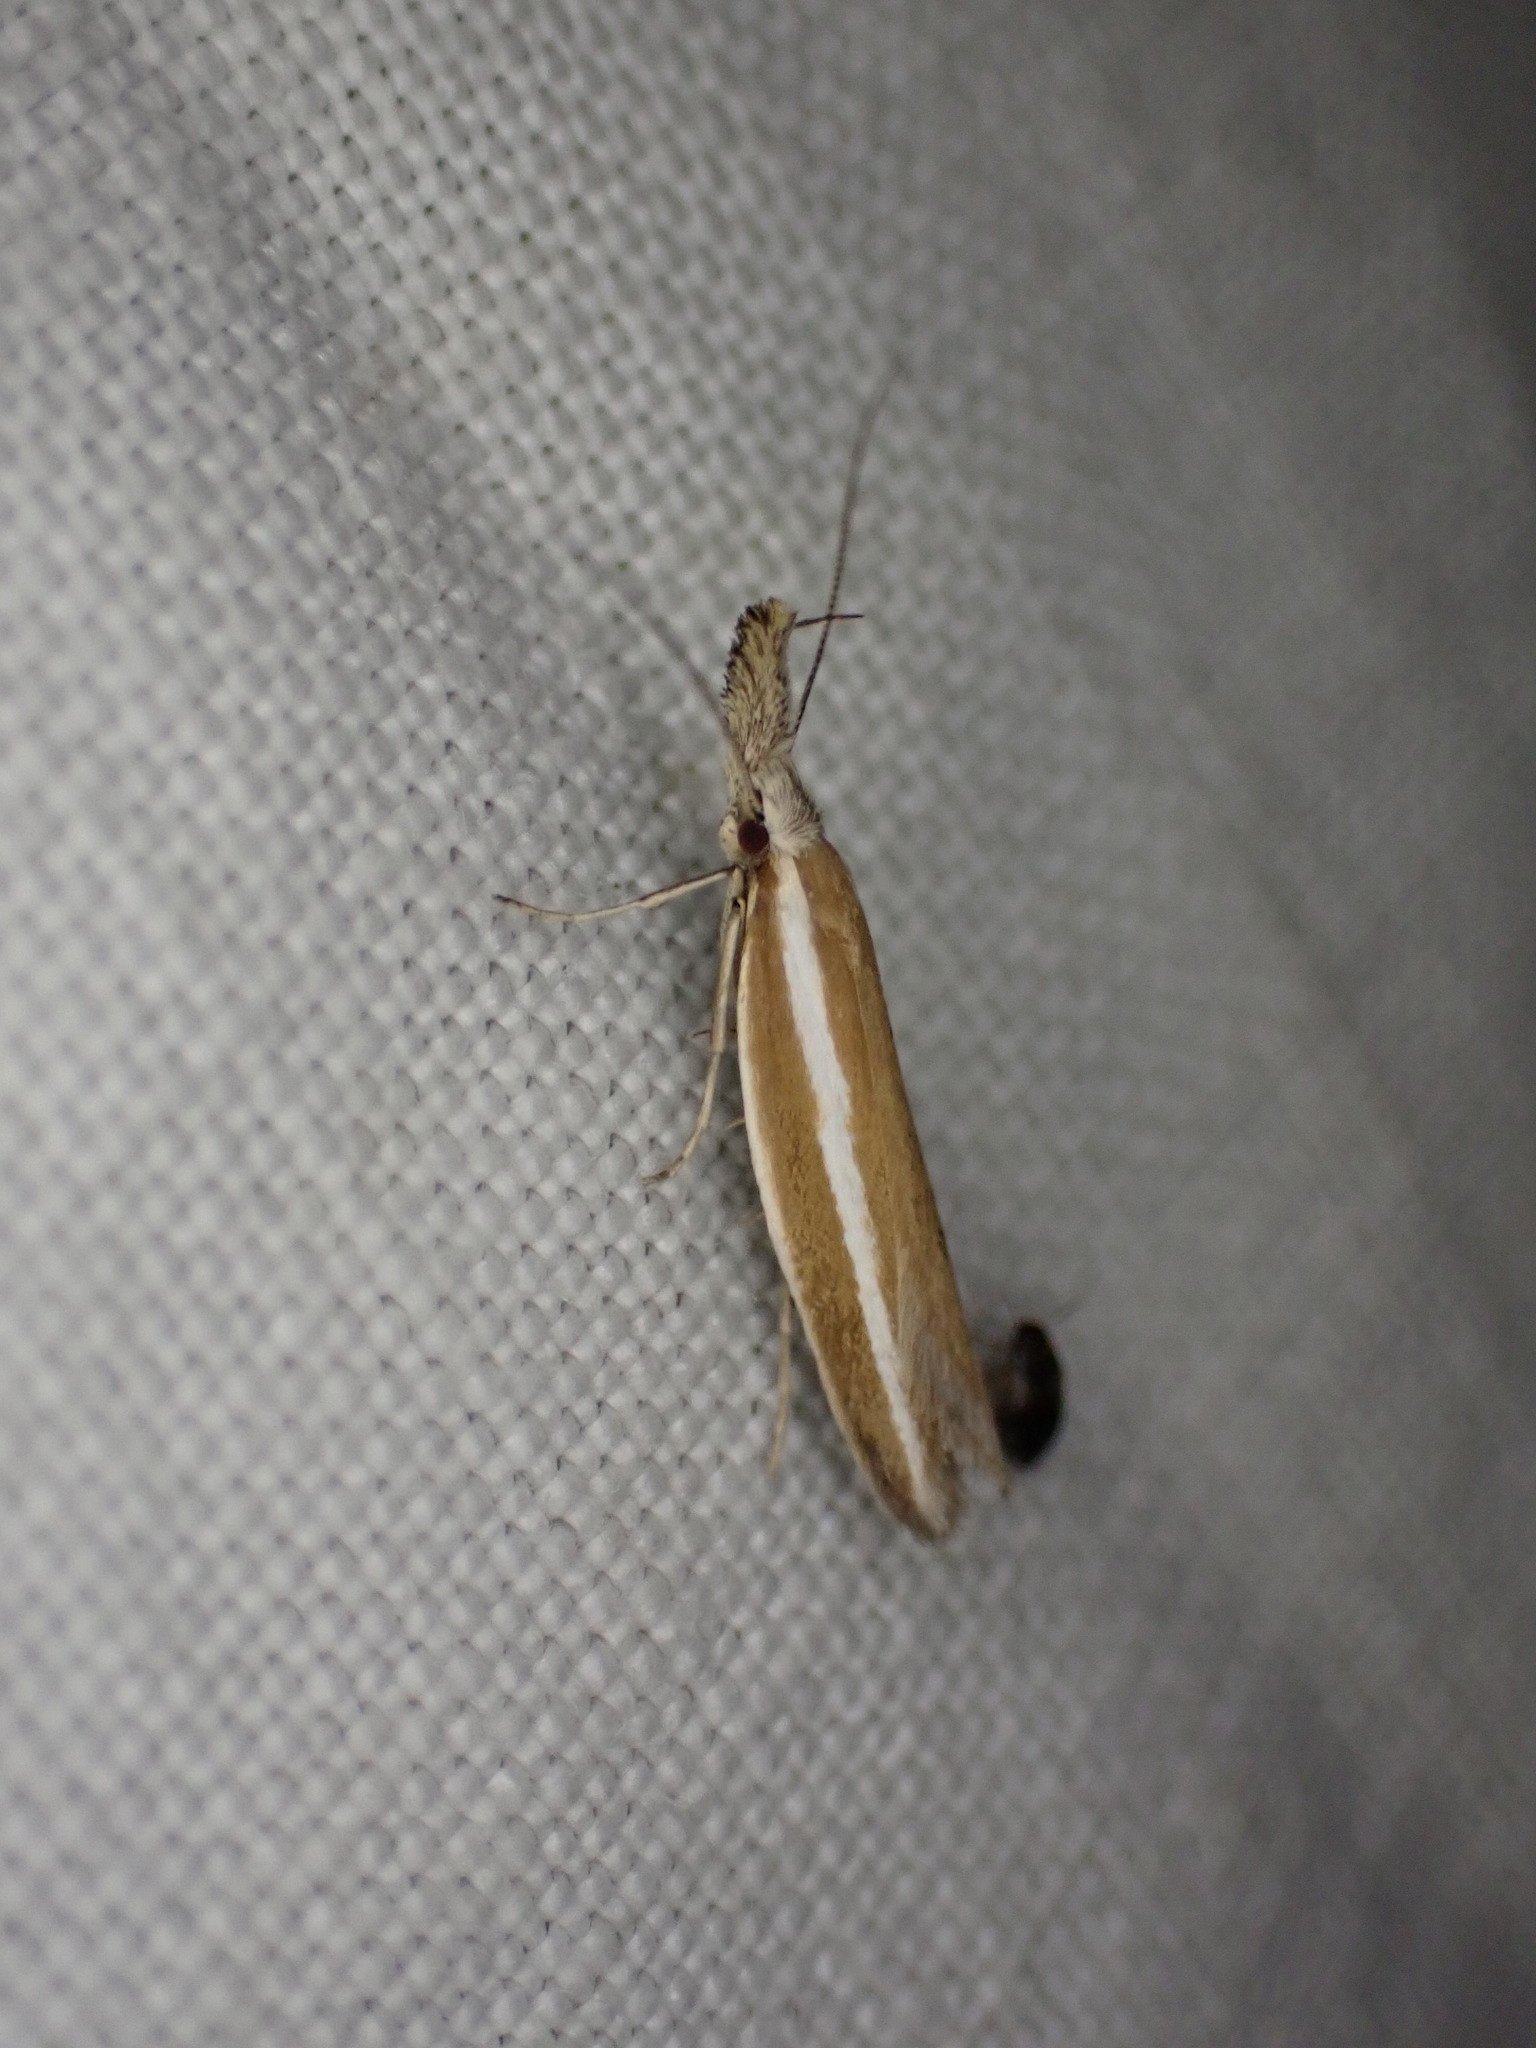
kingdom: Animalia
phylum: Arthropoda
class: Insecta
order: Lepidoptera
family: Oecophoridae
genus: Pleurota
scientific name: Pleurota aristella
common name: Southern streak
